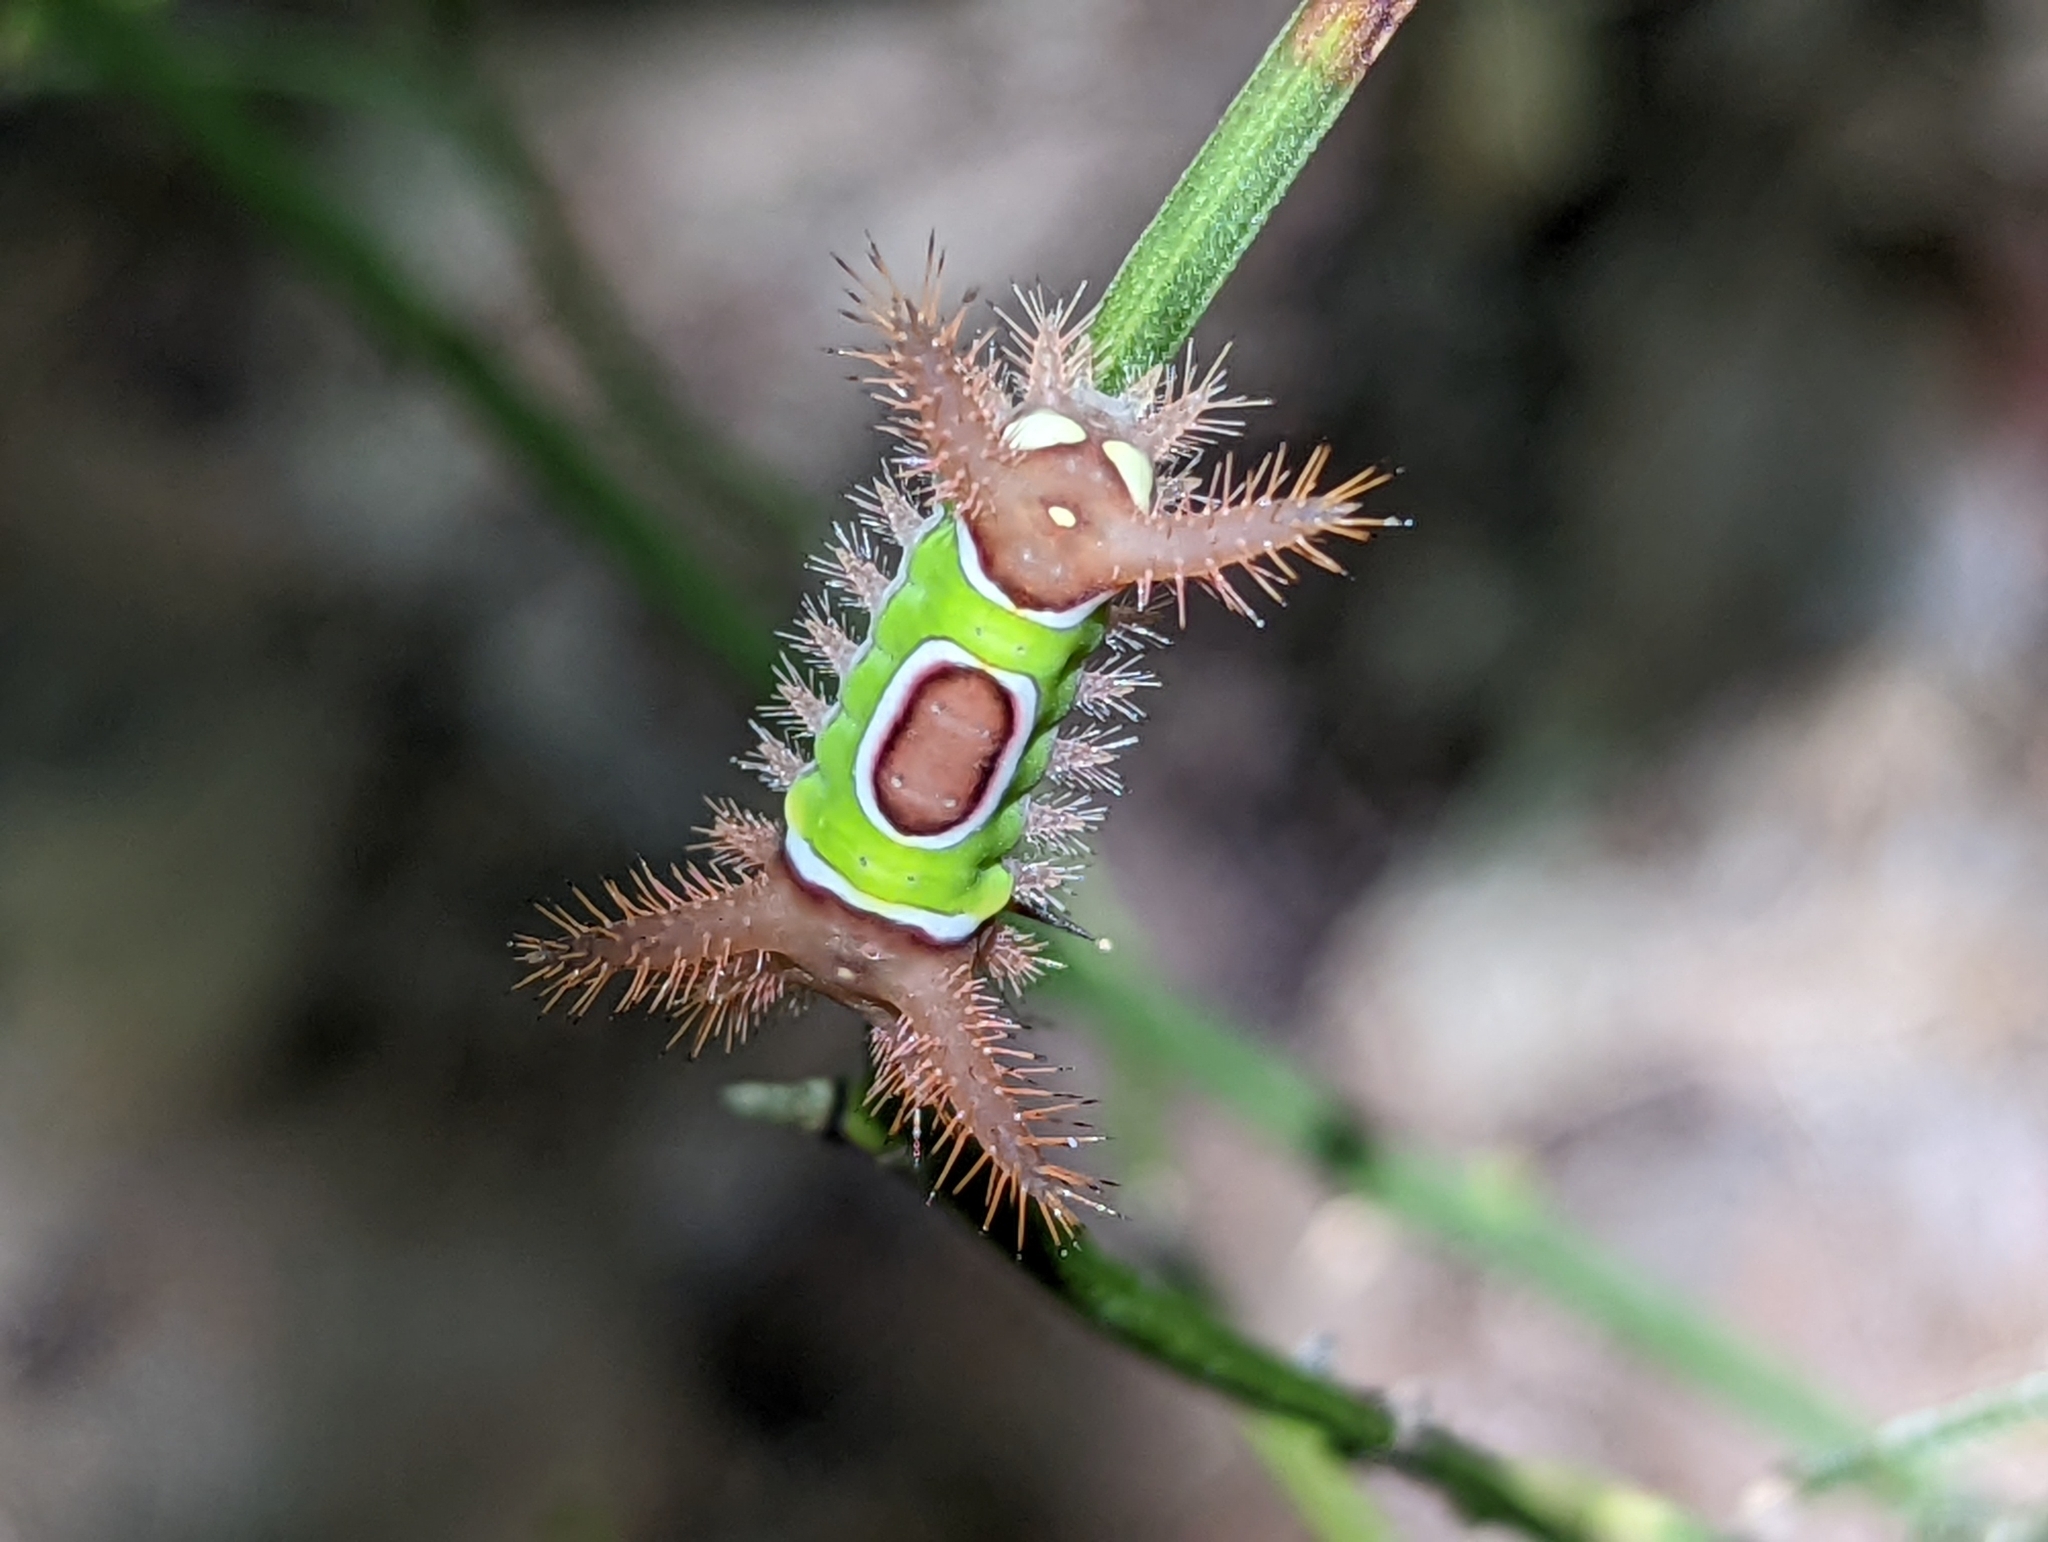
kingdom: Animalia
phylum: Arthropoda
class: Insecta
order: Lepidoptera
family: Limacodidae
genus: Acharia
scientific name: Acharia stimulea
